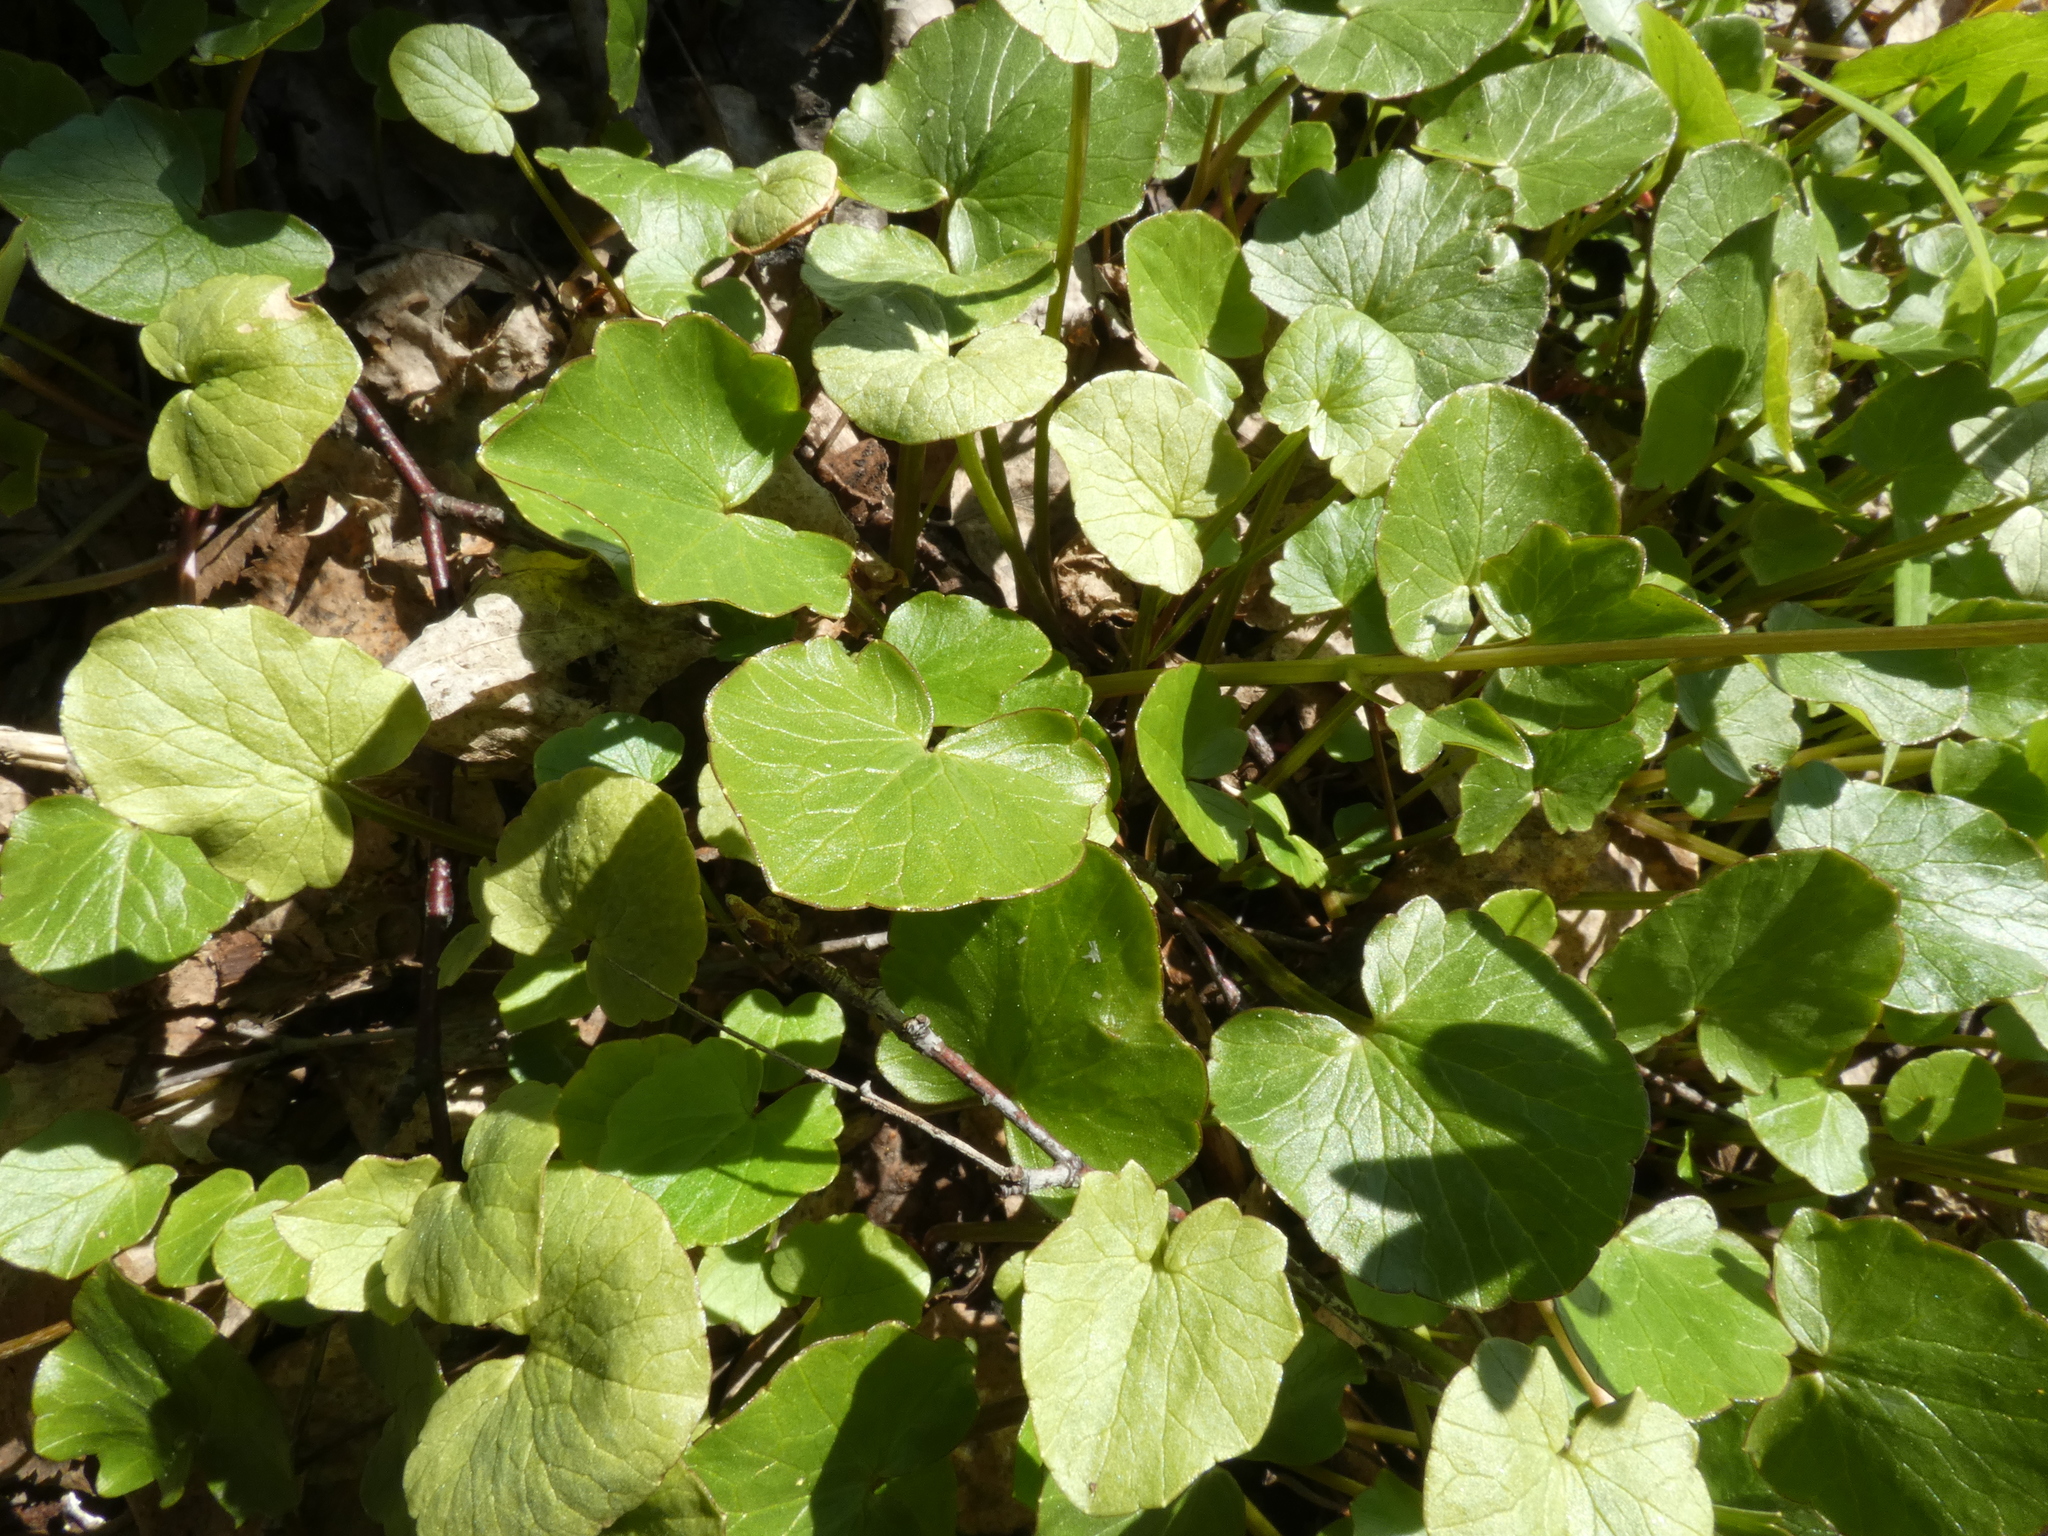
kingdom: Plantae
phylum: Tracheophyta
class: Magnoliopsida
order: Ranunculales
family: Ranunculaceae
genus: Ficaria
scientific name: Ficaria verna
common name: Lesser celandine
